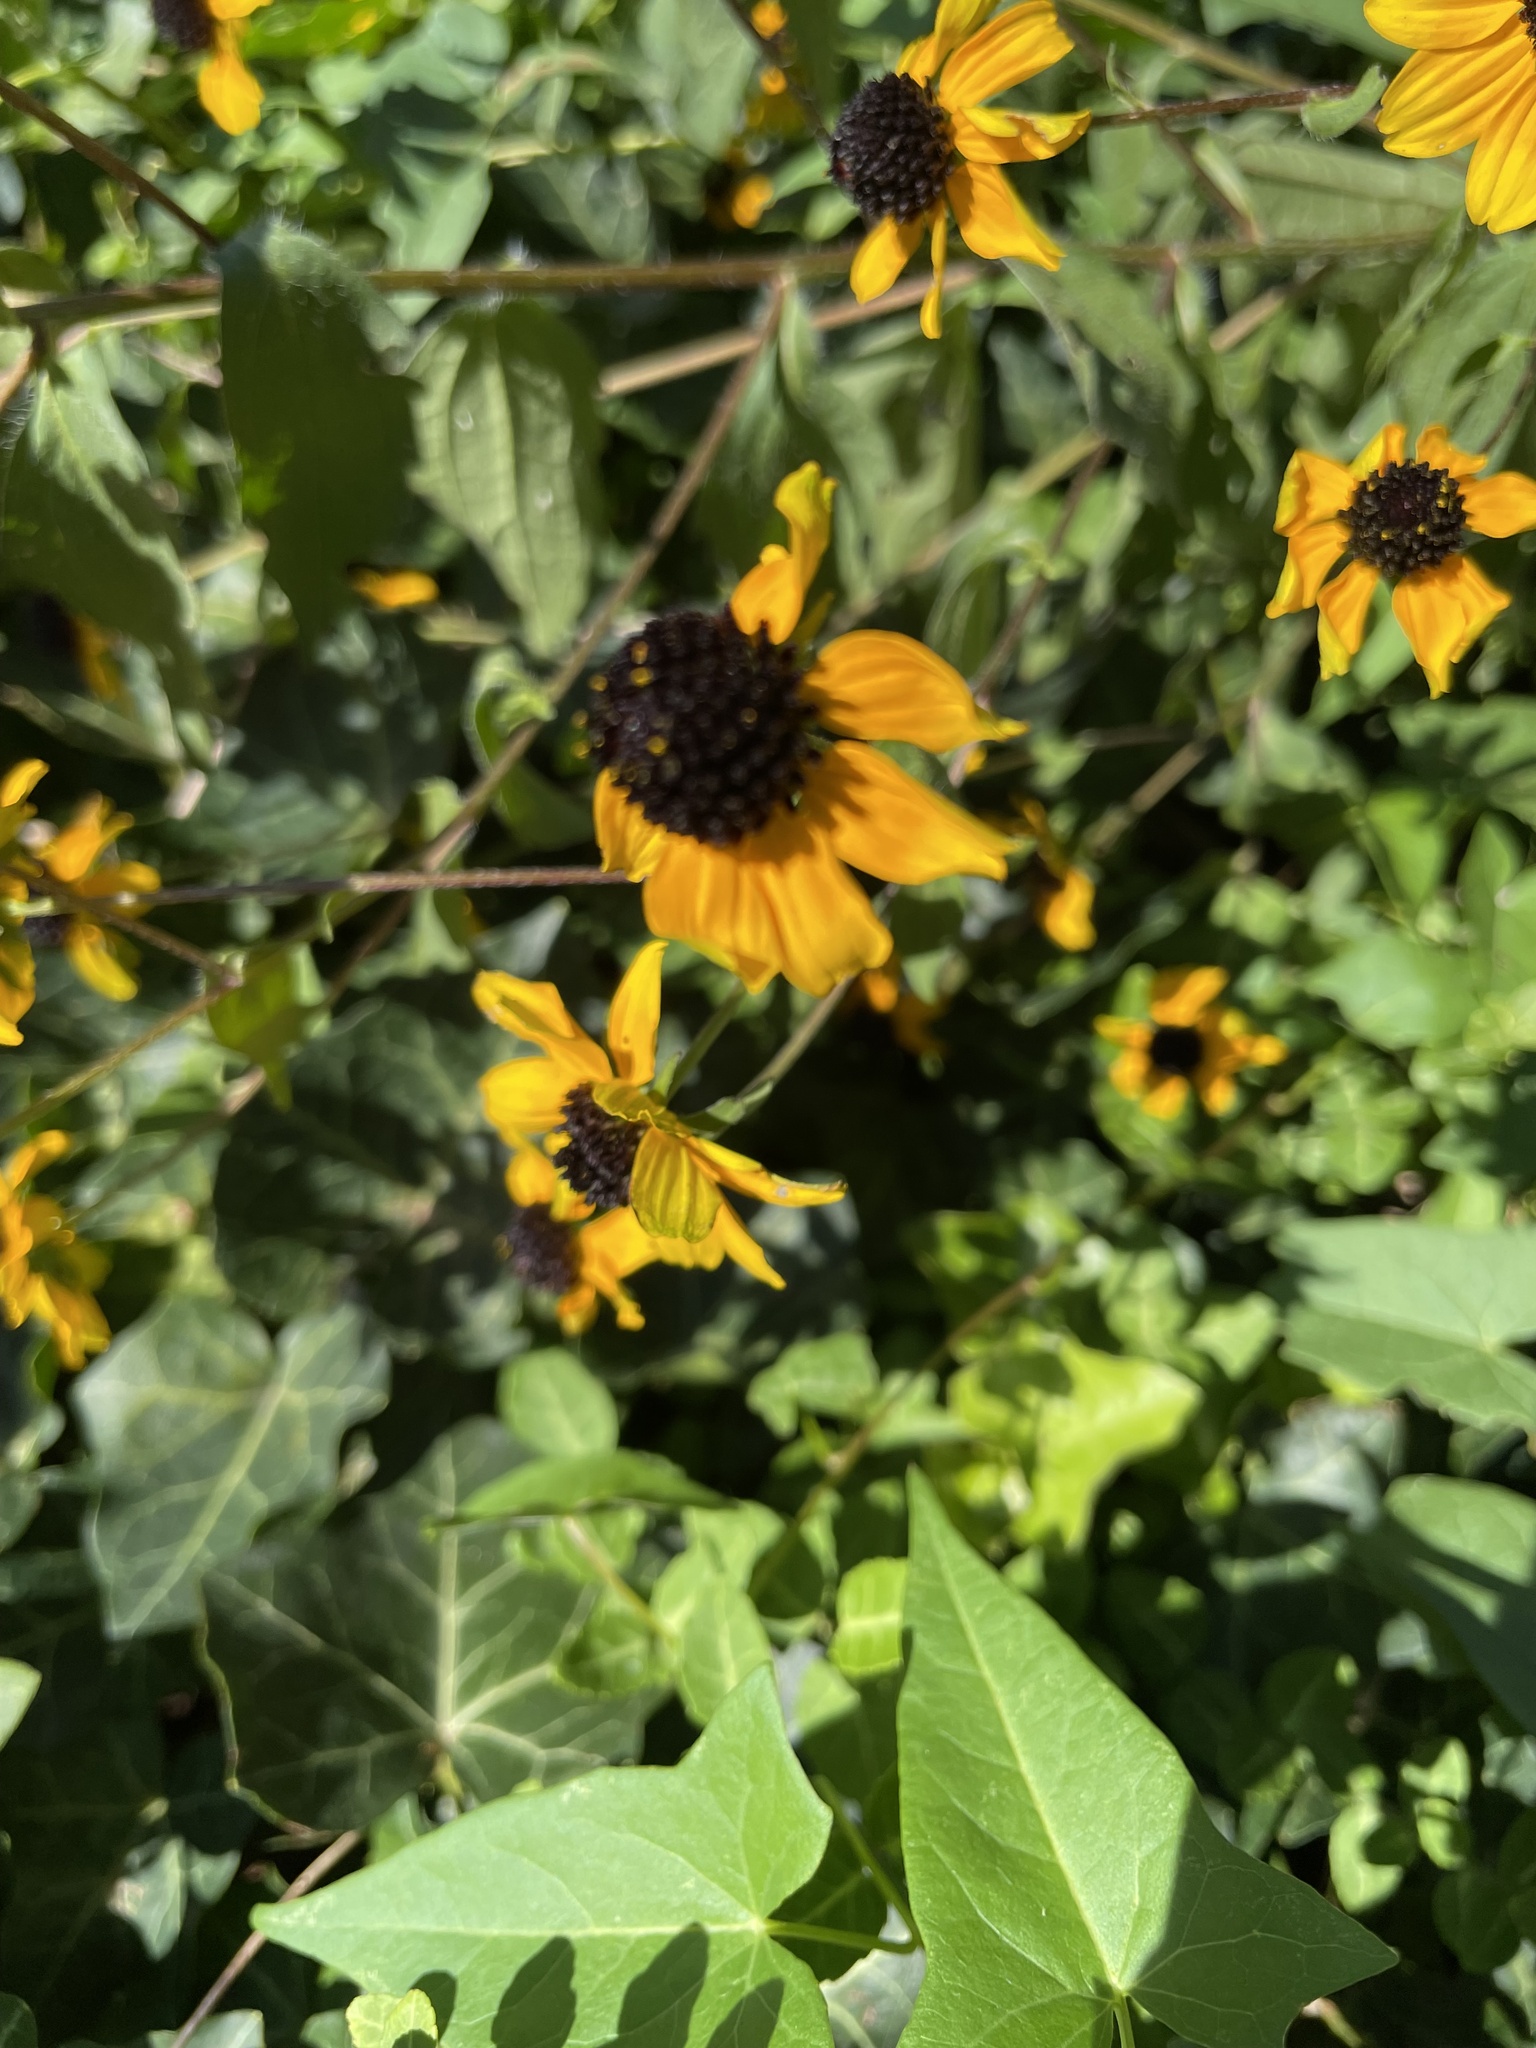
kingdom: Plantae
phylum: Tracheophyta
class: Magnoliopsida
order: Asterales
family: Asteraceae
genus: Rudbeckia
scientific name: Rudbeckia triloba
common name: Thin-leaved coneflower
